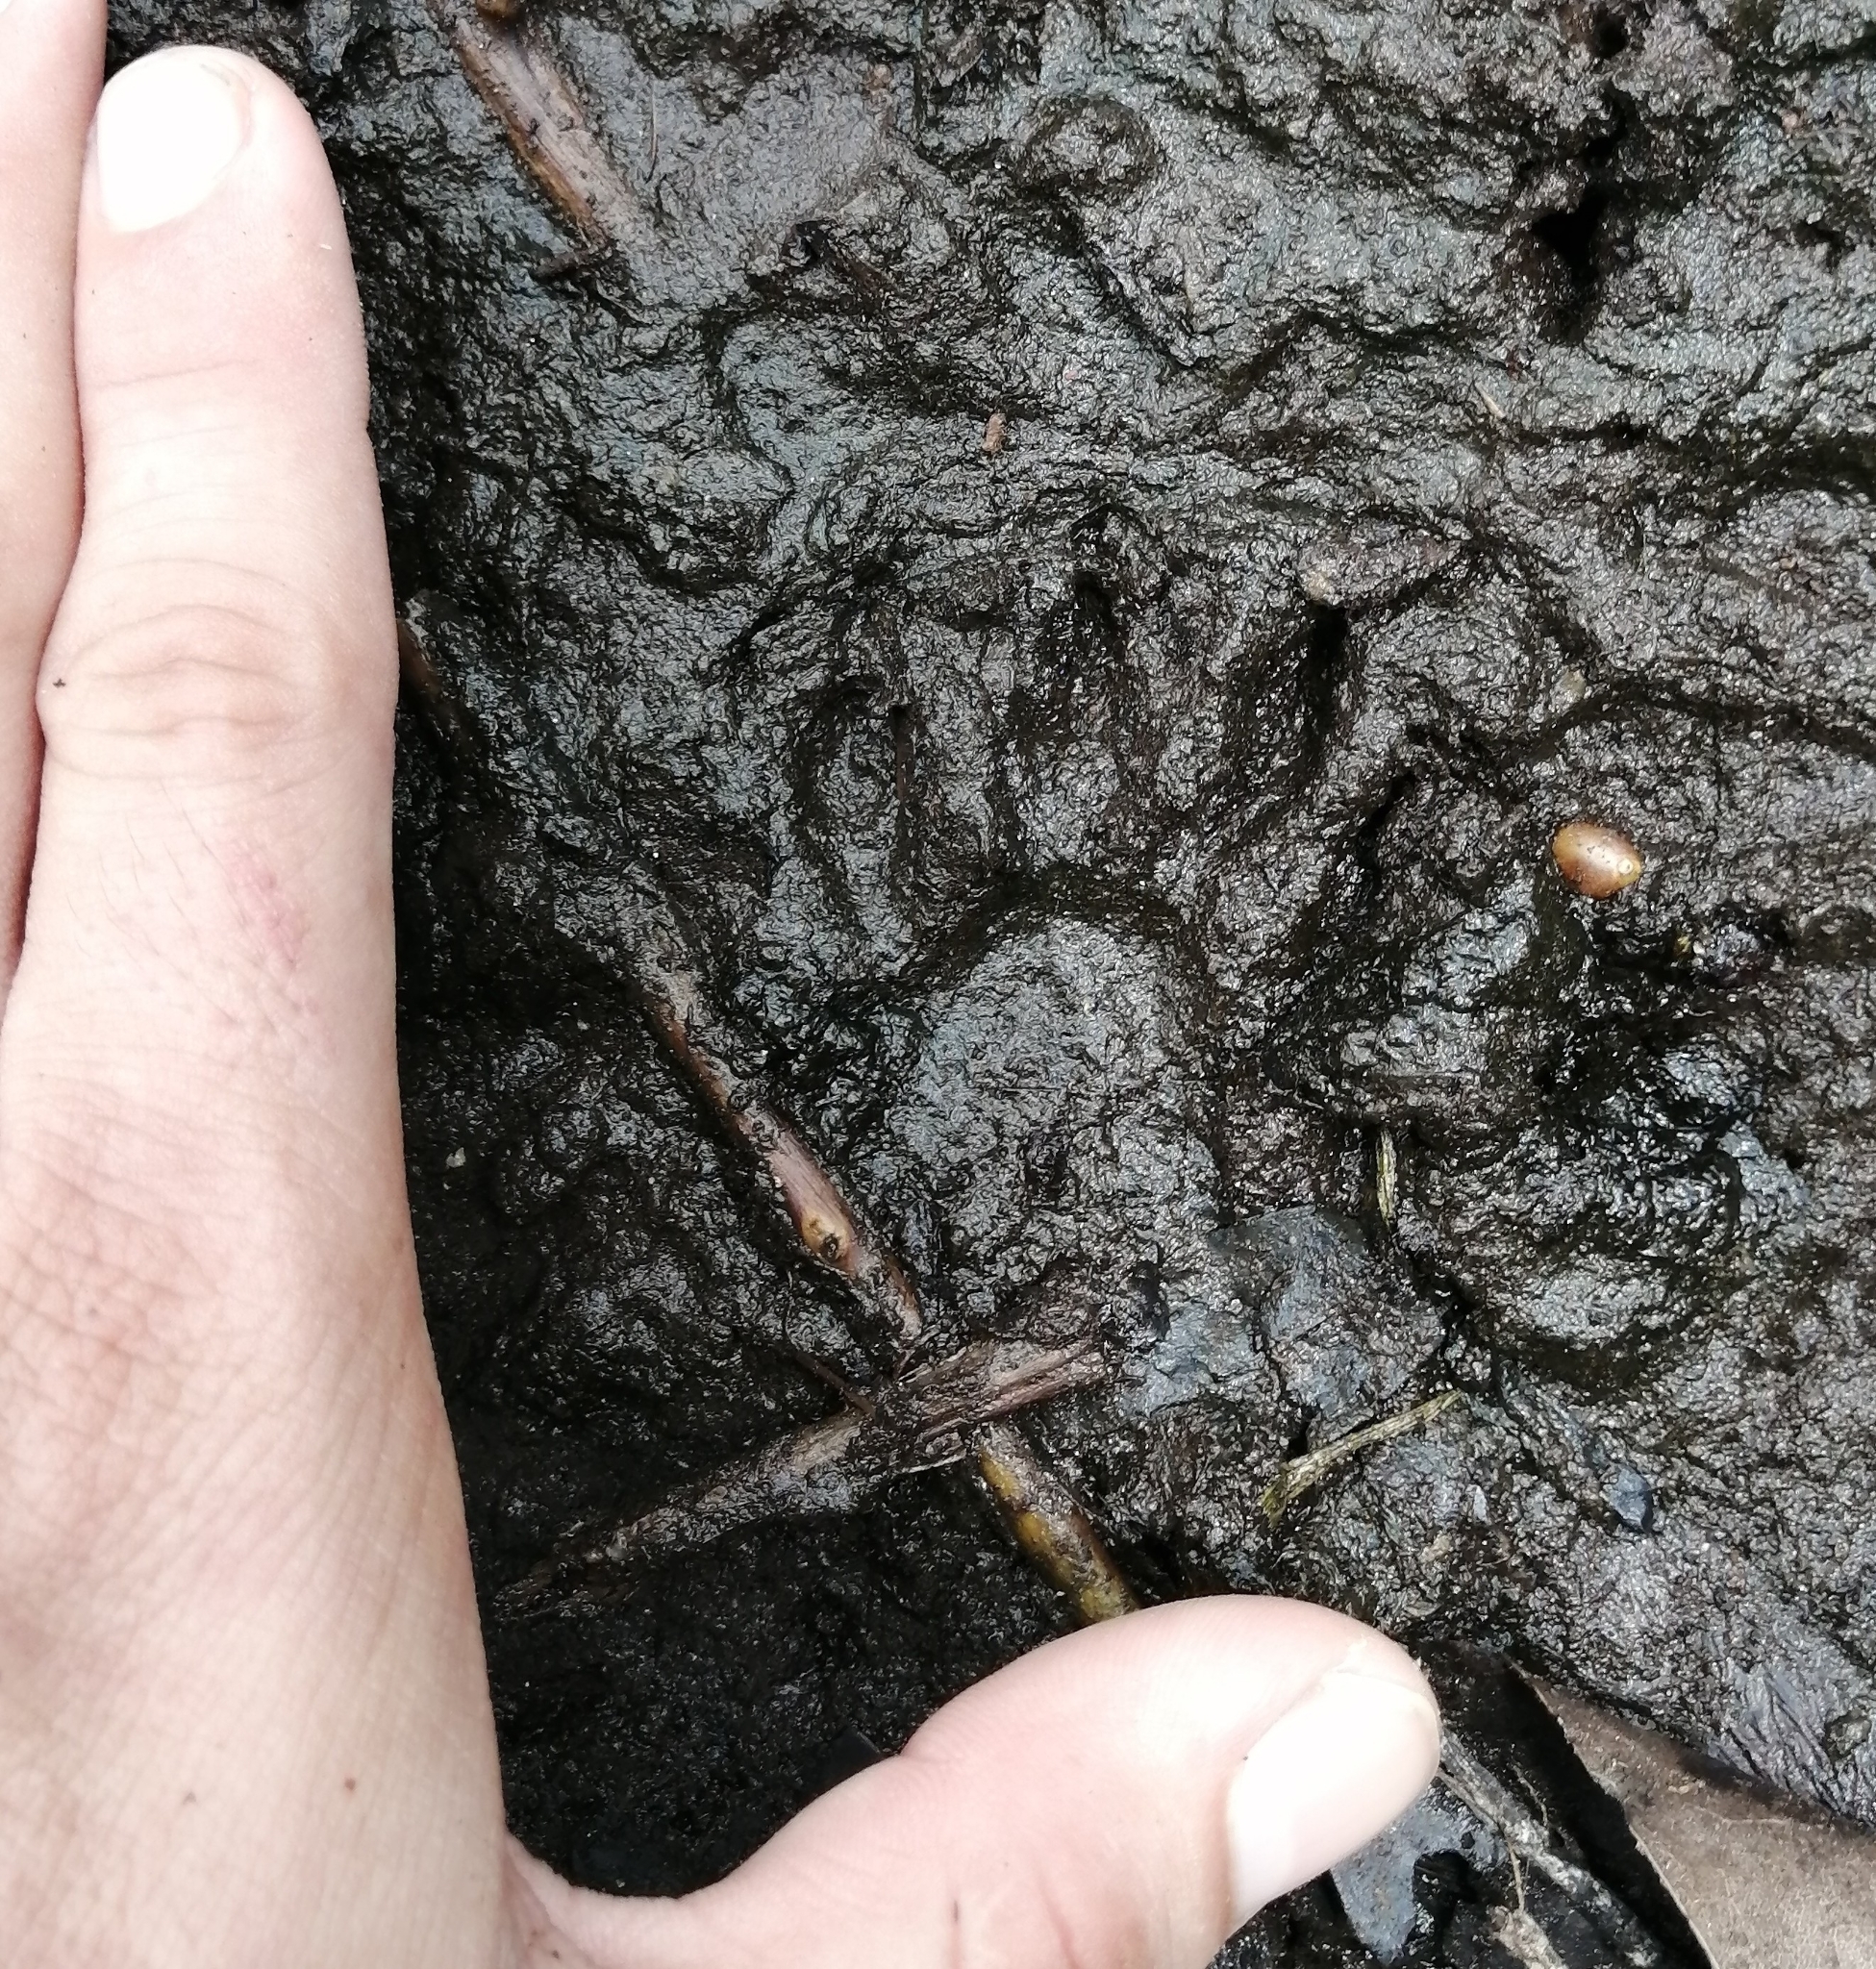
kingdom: Animalia
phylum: Chordata
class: Mammalia
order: Carnivora
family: Procyonidae
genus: Procyon
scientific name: Procyon lotor
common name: Raccoon
